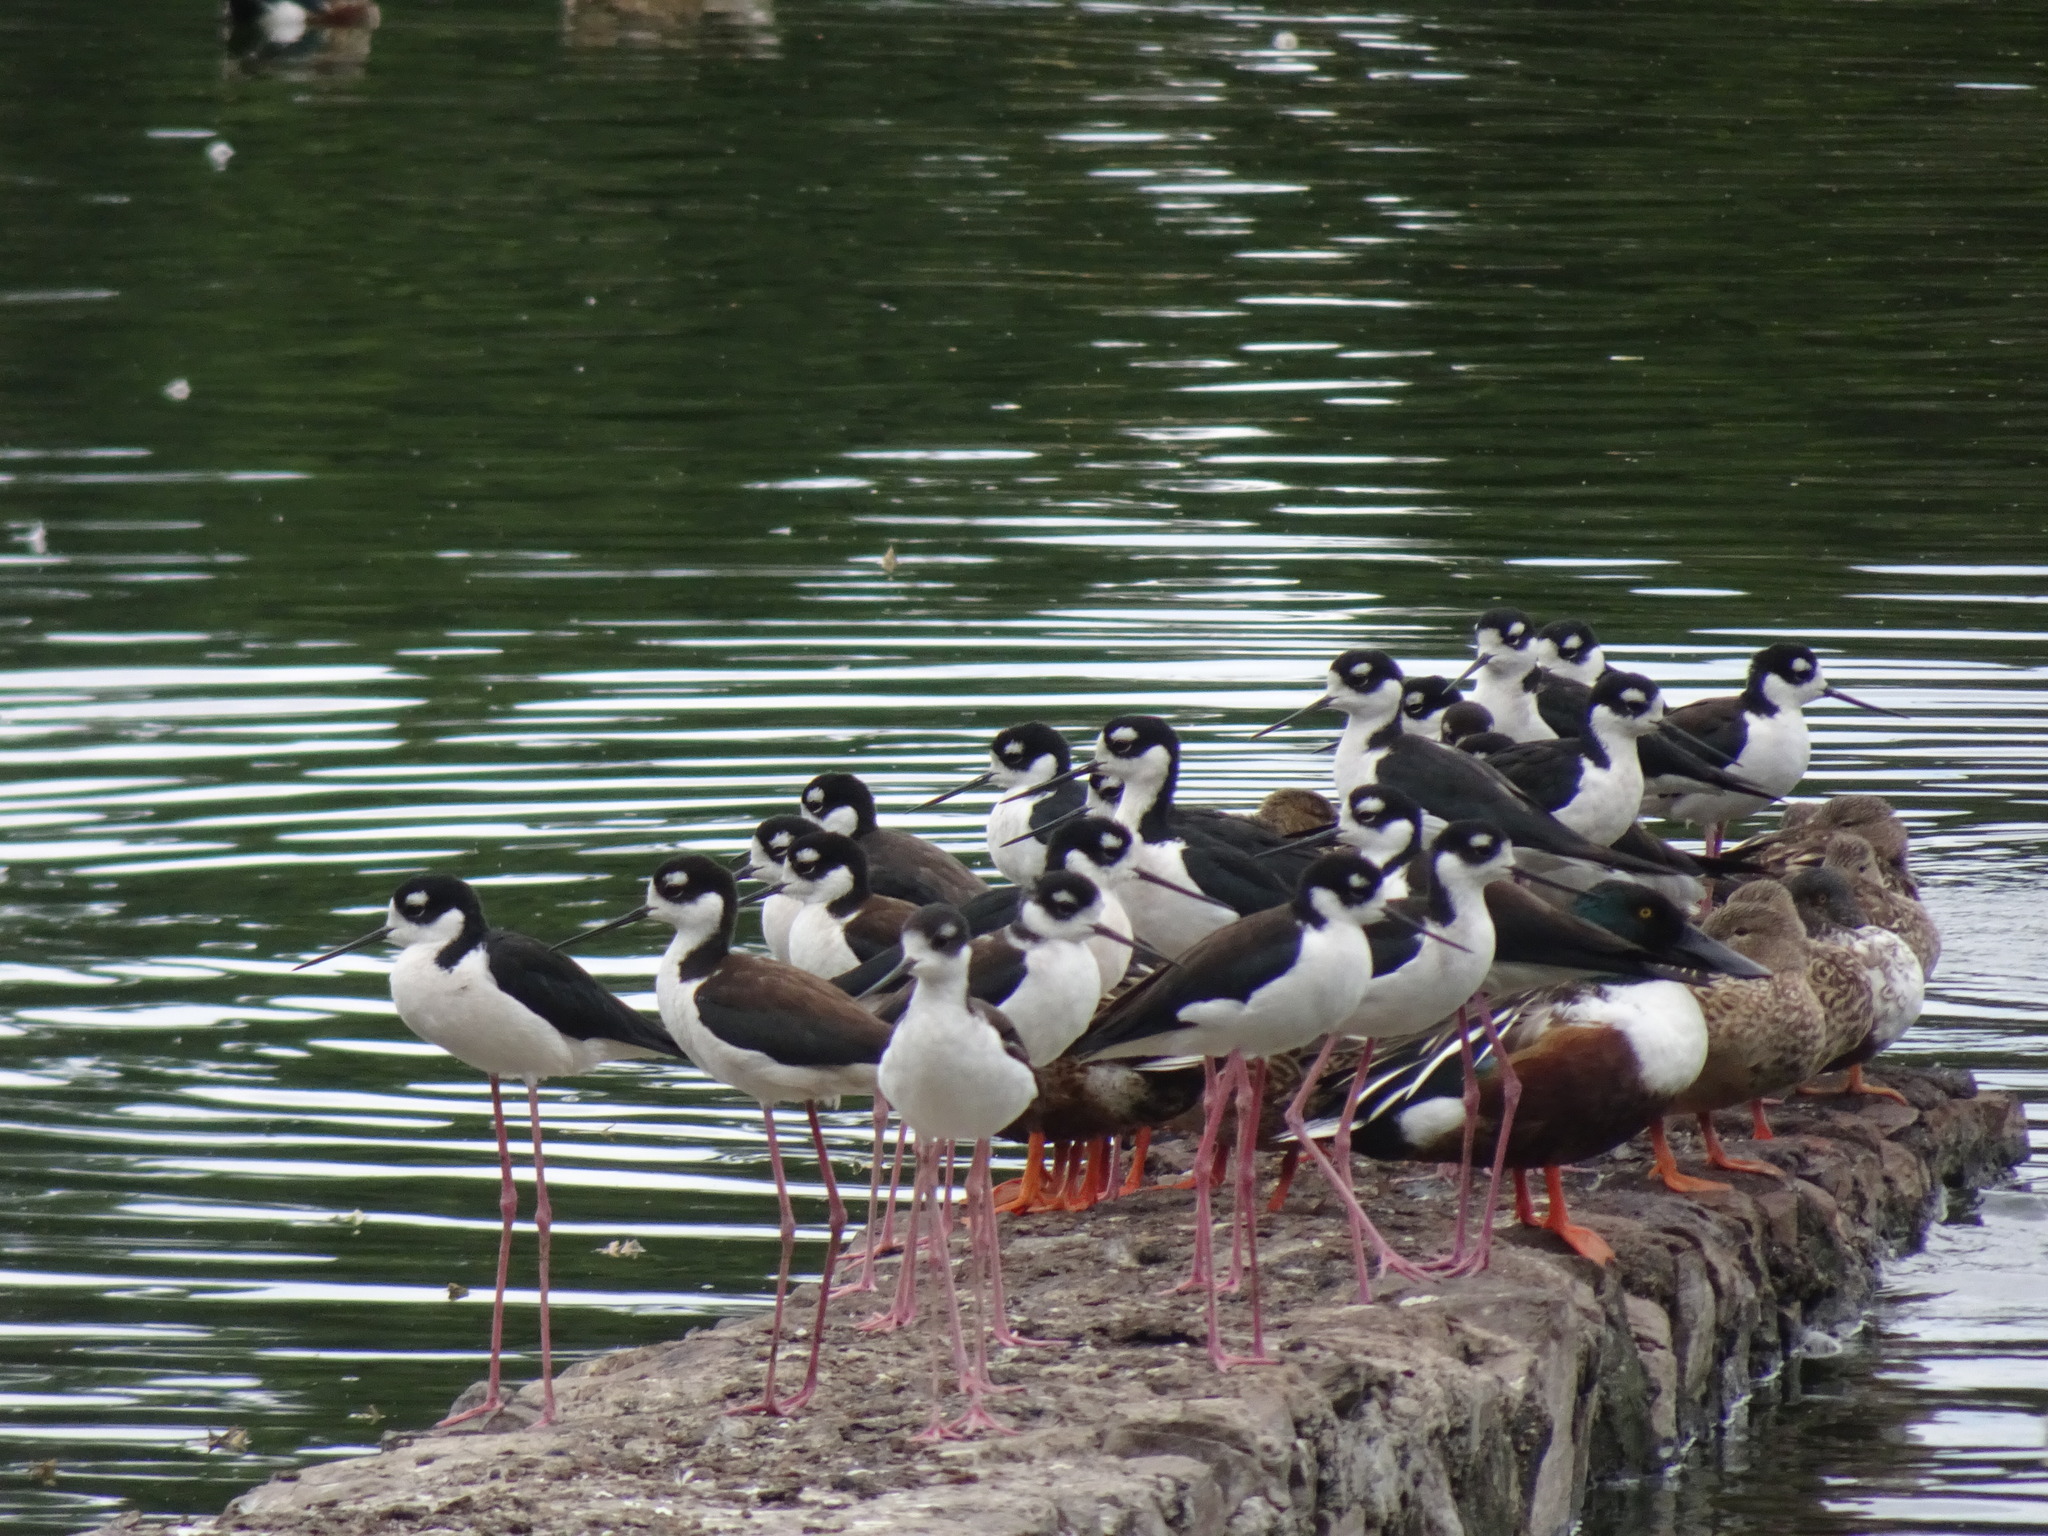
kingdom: Animalia
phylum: Chordata
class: Aves
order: Charadriiformes
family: Recurvirostridae
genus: Himantopus
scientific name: Himantopus mexicanus
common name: Black-necked stilt
